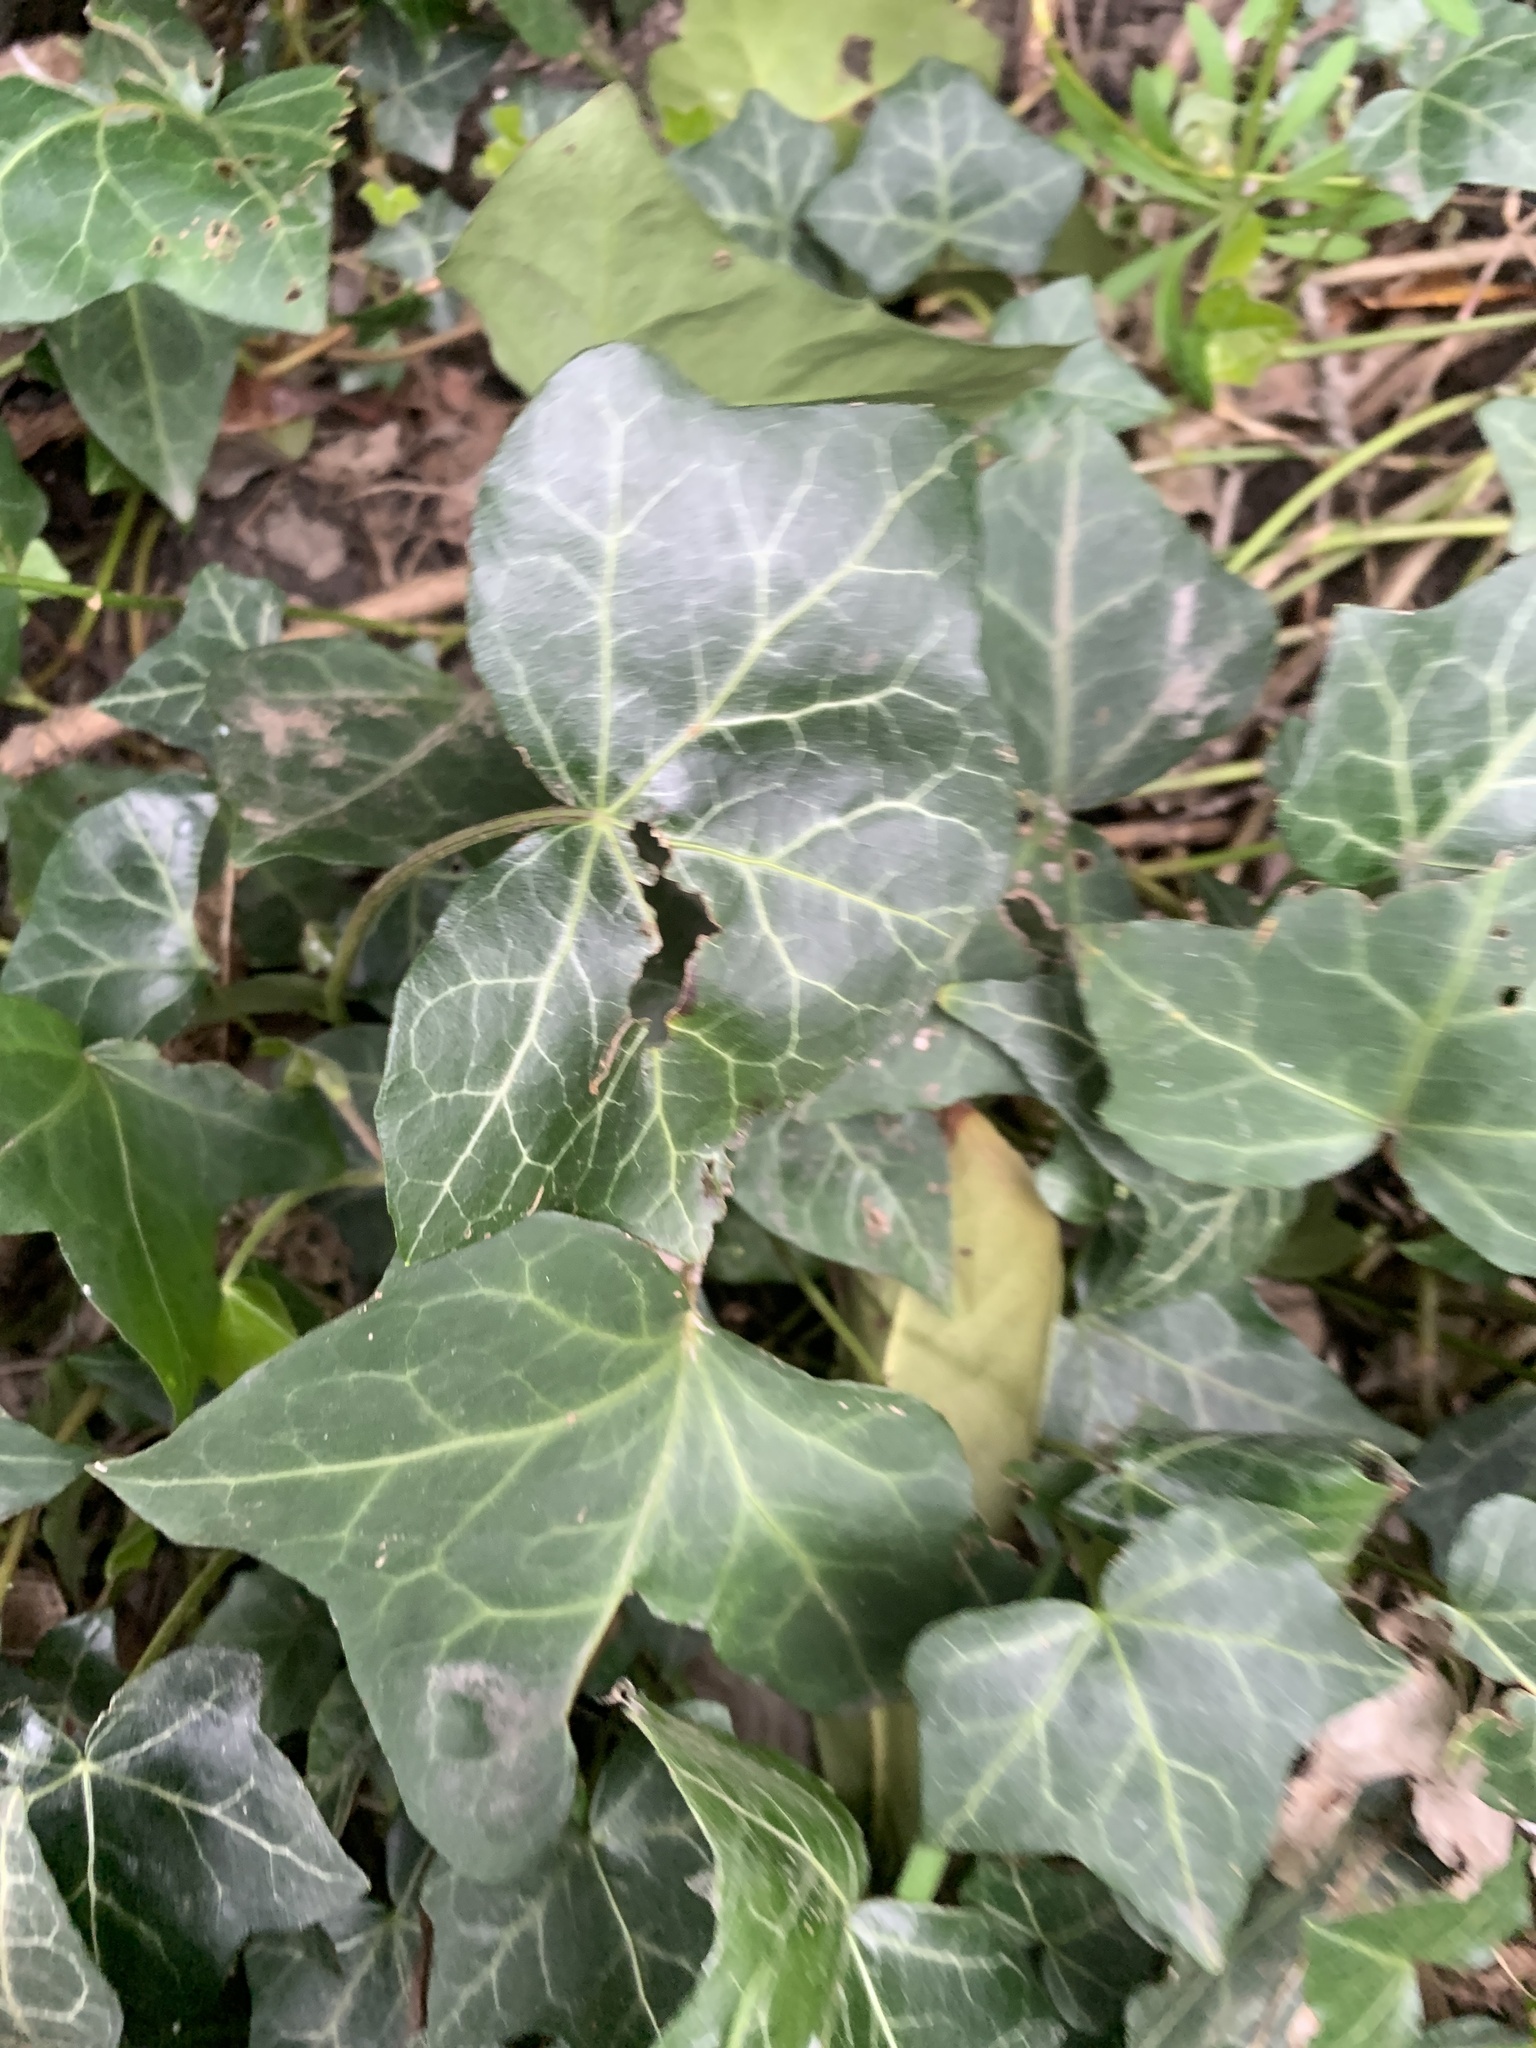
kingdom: Plantae
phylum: Tracheophyta
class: Magnoliopsida
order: Apiales
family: Araliaceae
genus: Hedera
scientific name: Hedera helix
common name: Ivy
